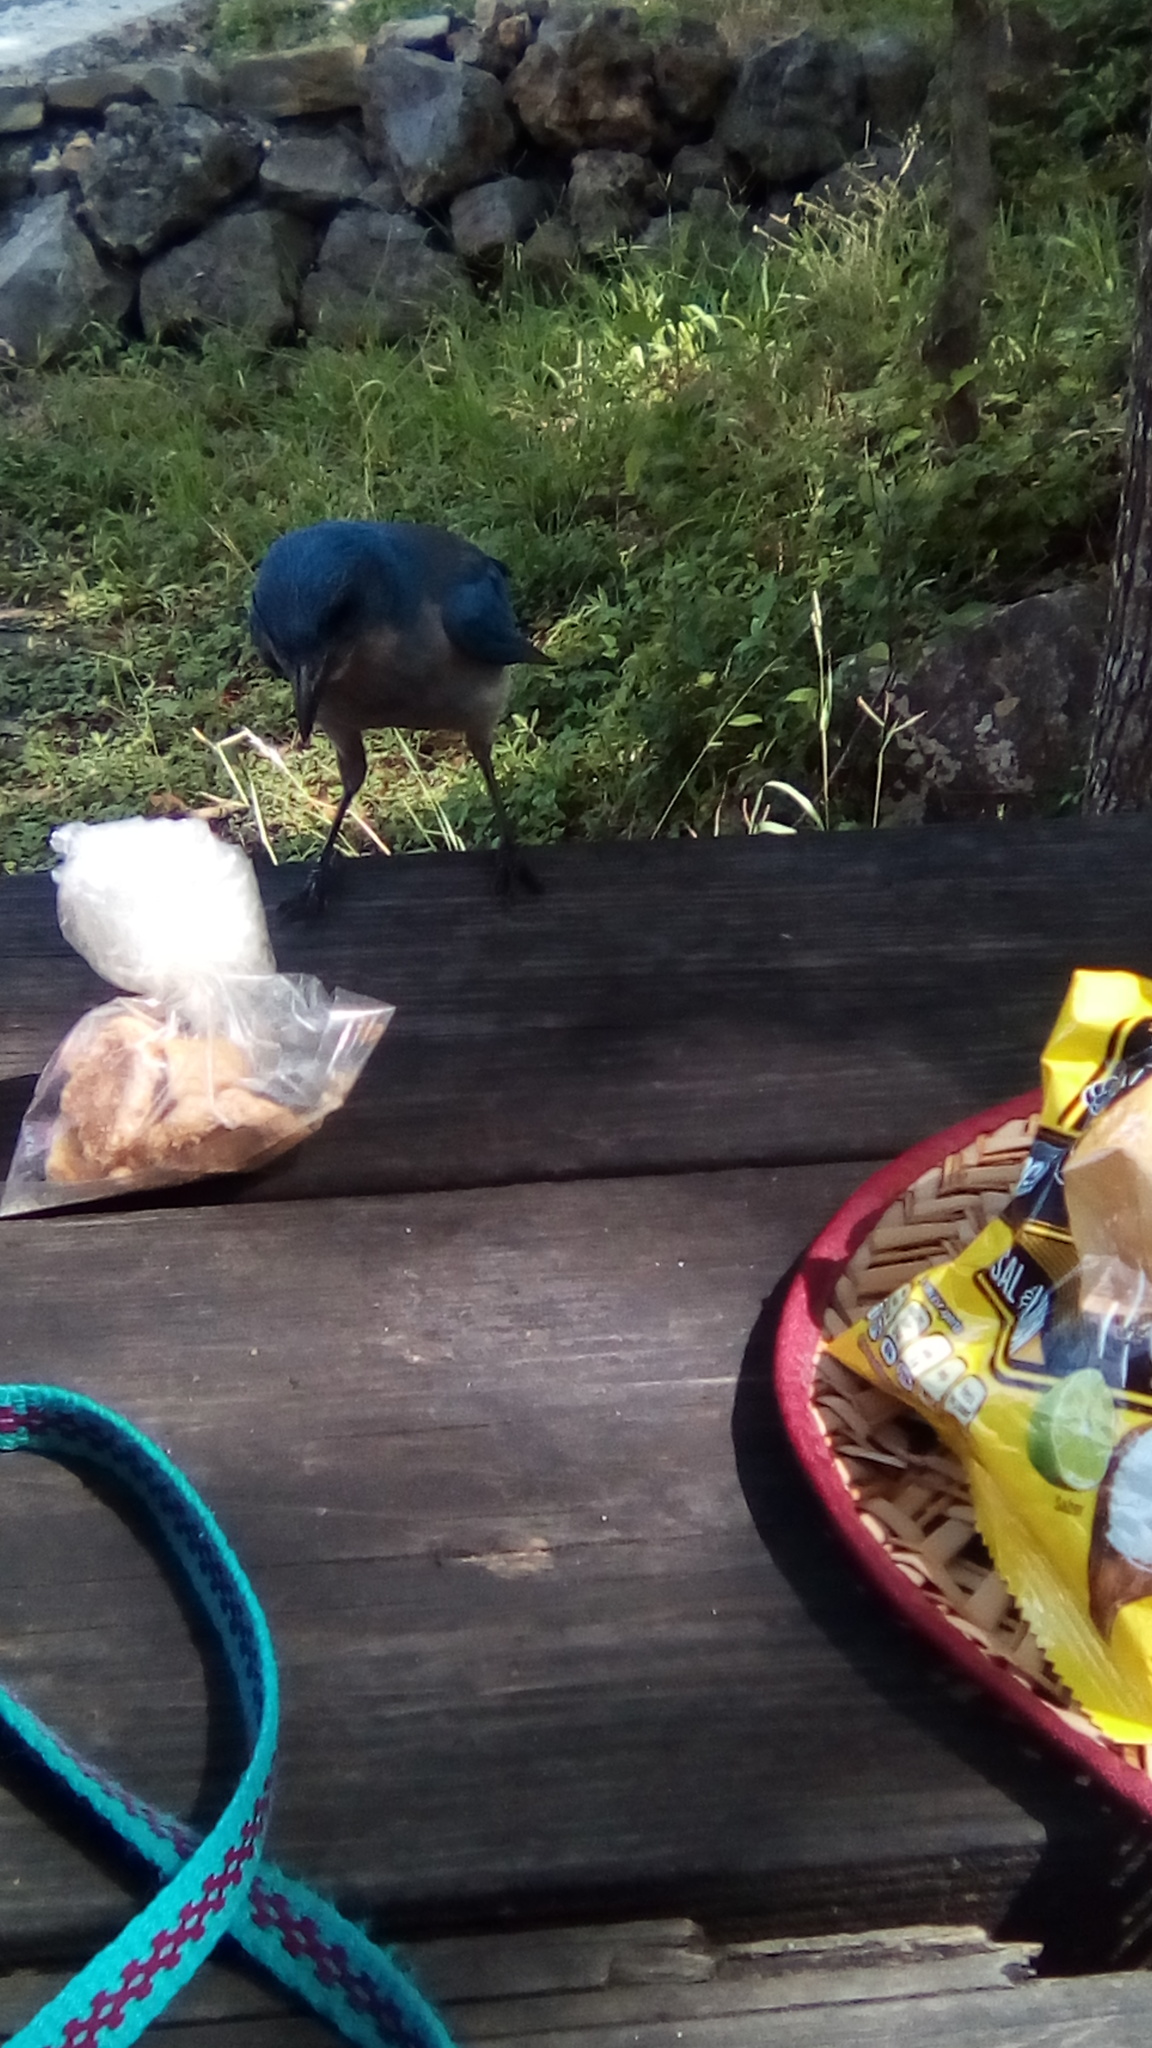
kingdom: Animalia
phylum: Chordata
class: Aves
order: Passeriformes
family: Corvidae
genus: Aphelocoma
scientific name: Aphelocoma wollweberi
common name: Mexican jay
